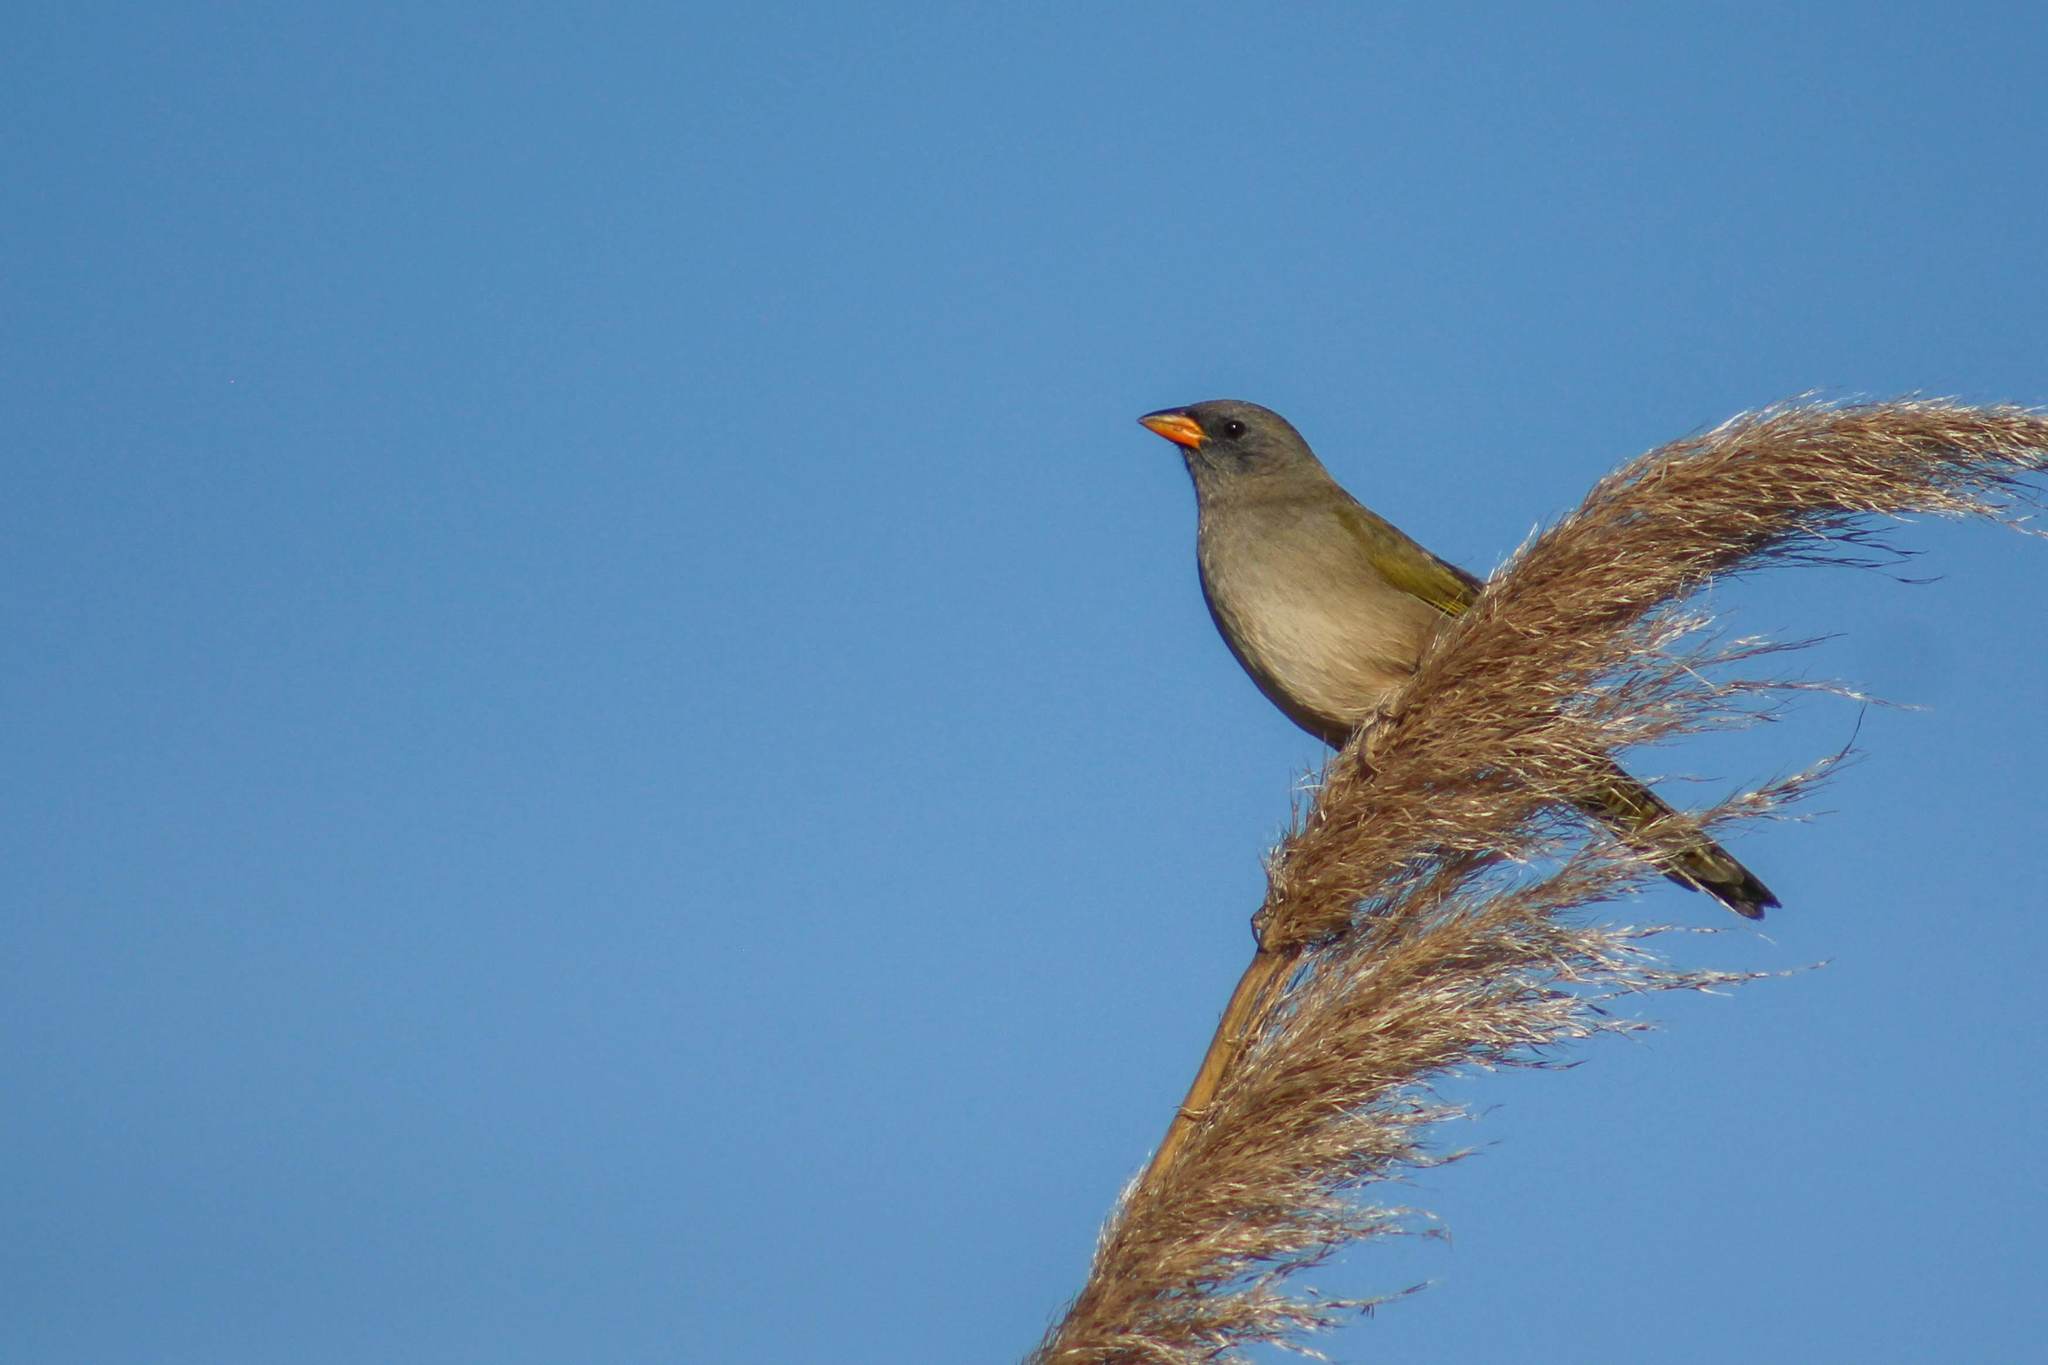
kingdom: Animalia
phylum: Chordata
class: Aves
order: Passeriformes
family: Thraupidae
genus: Embernagra
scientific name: Embernagra platensis
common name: Pampa finch
